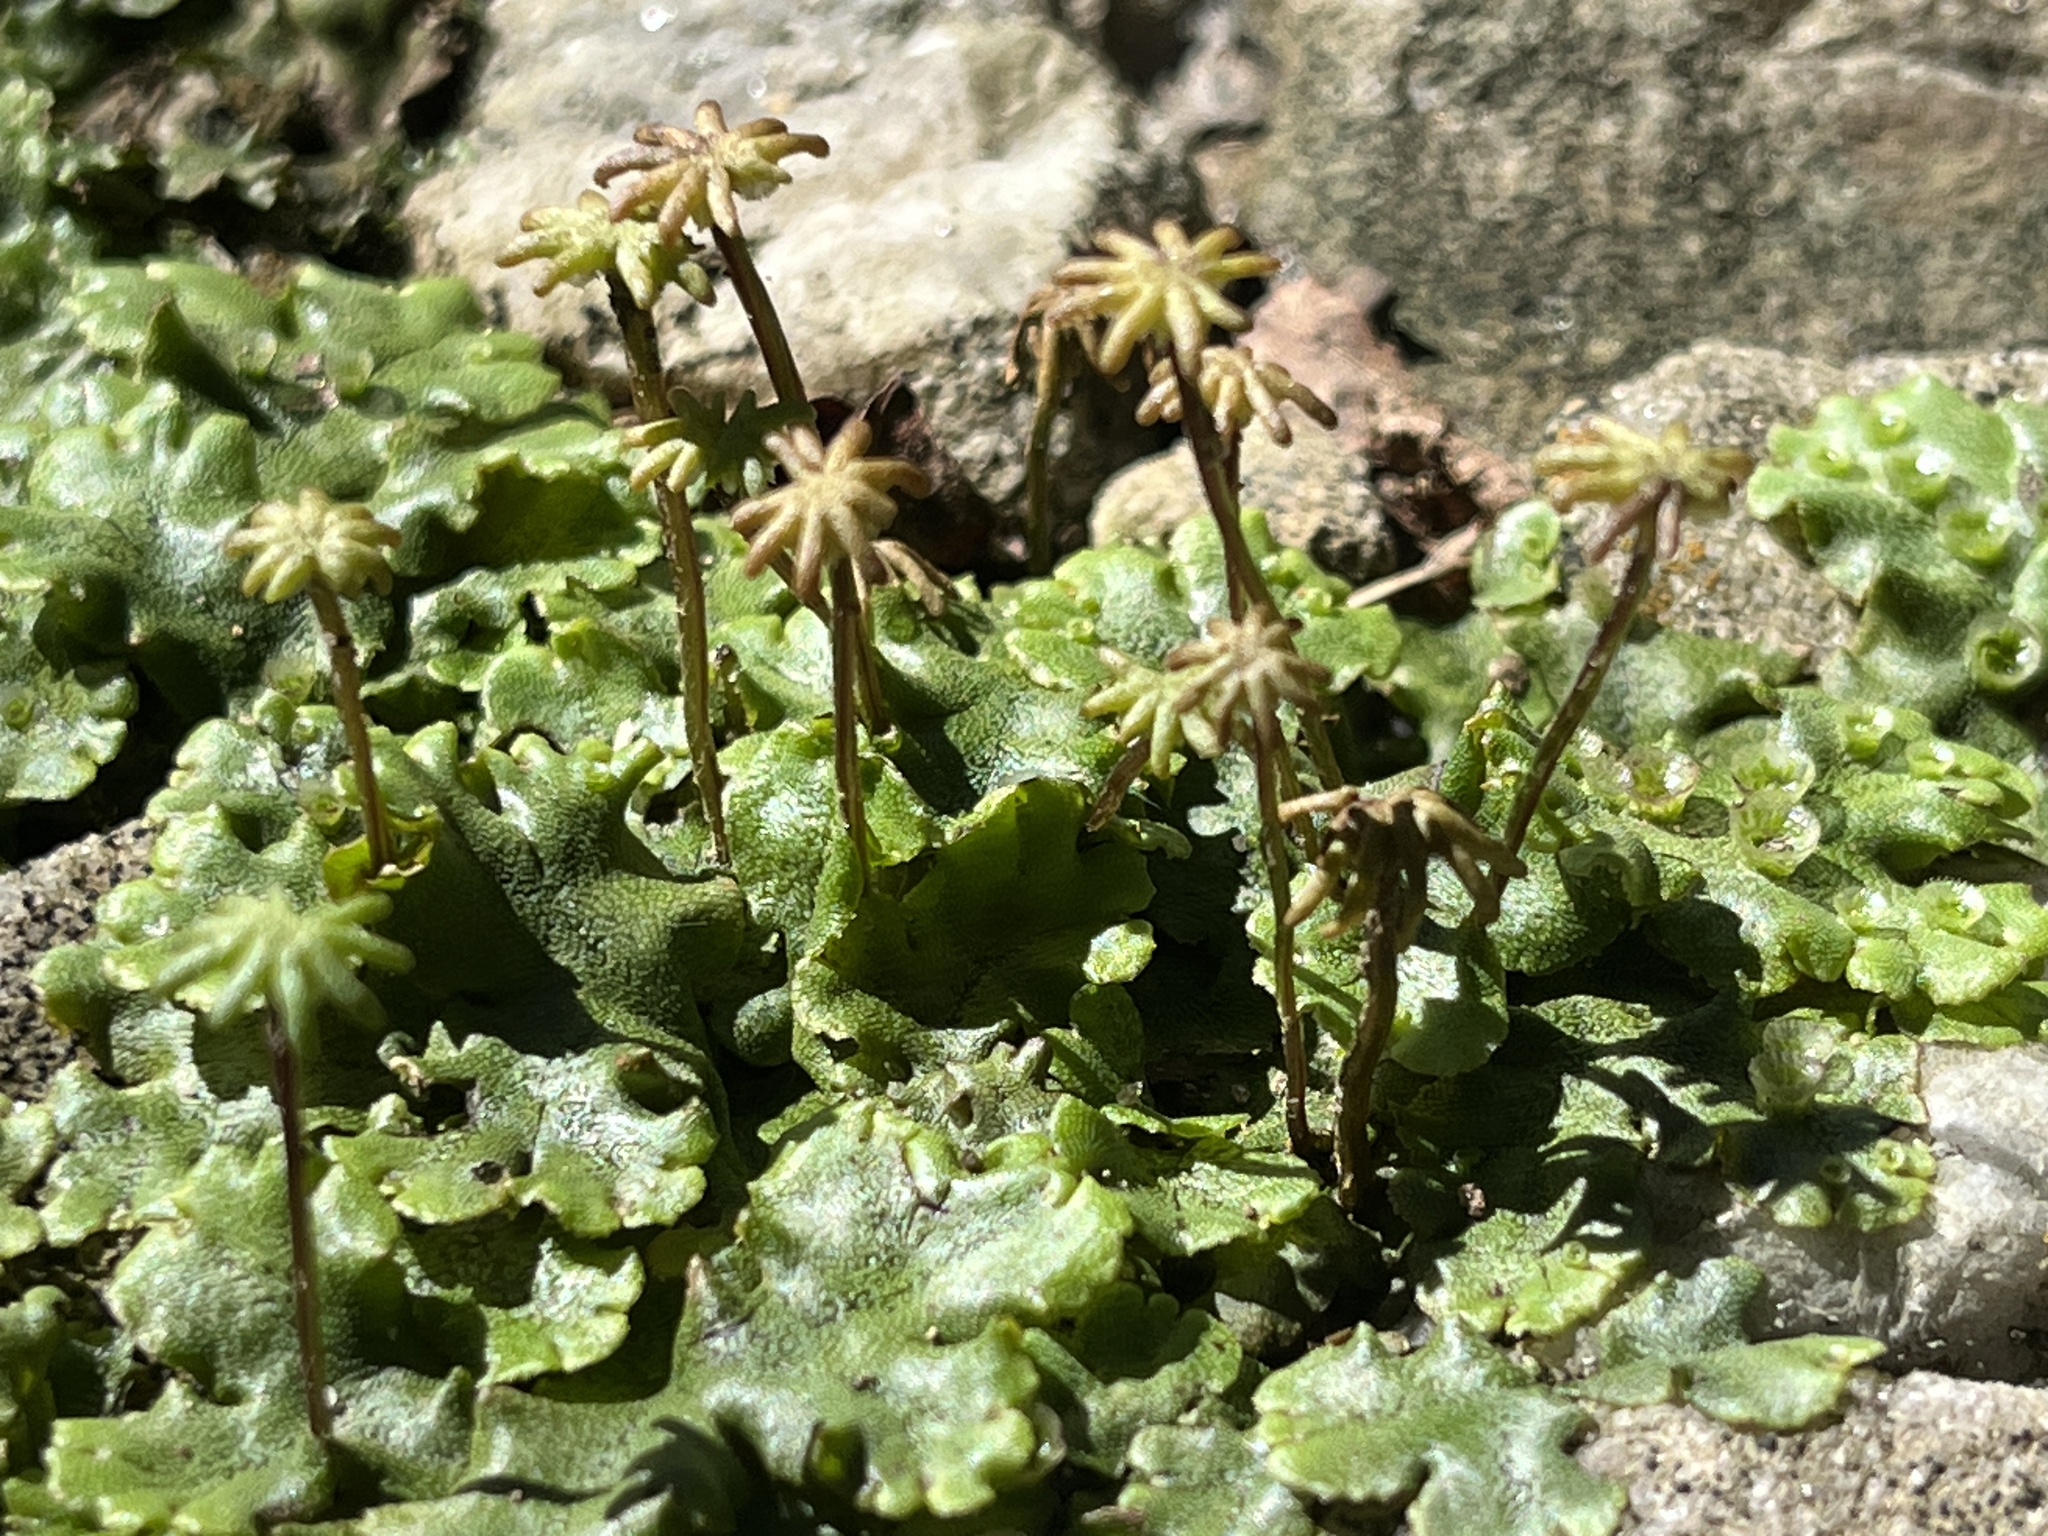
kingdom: Plantae
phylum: Marchantiophyta
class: Marchantiopsida
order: Marchantiales
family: Marchantiaceae
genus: Marchantia
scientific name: Marchantia polymorpha
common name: Common liverwort
